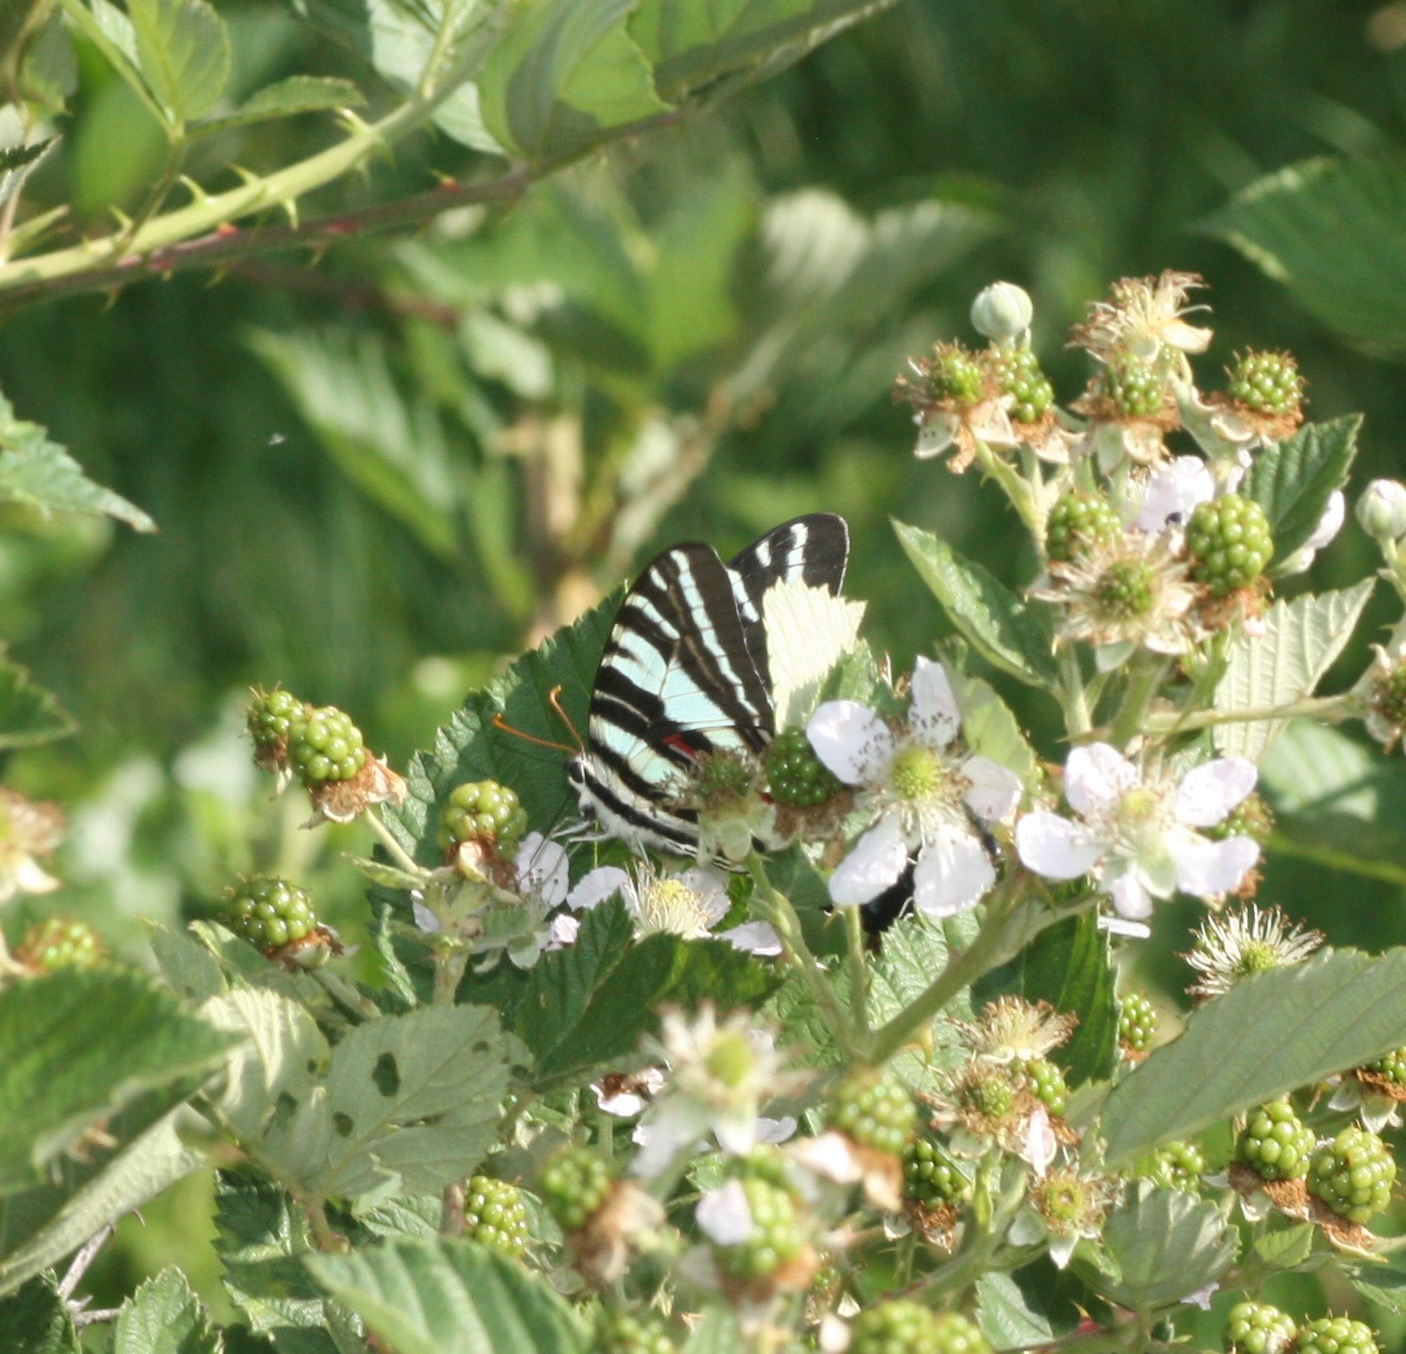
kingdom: Animalia
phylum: Arthropoda
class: Insecta
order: Lepidoptera
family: Papilionidae
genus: Protographium
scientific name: Protographium marcellus
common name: Zebra swallowtail
